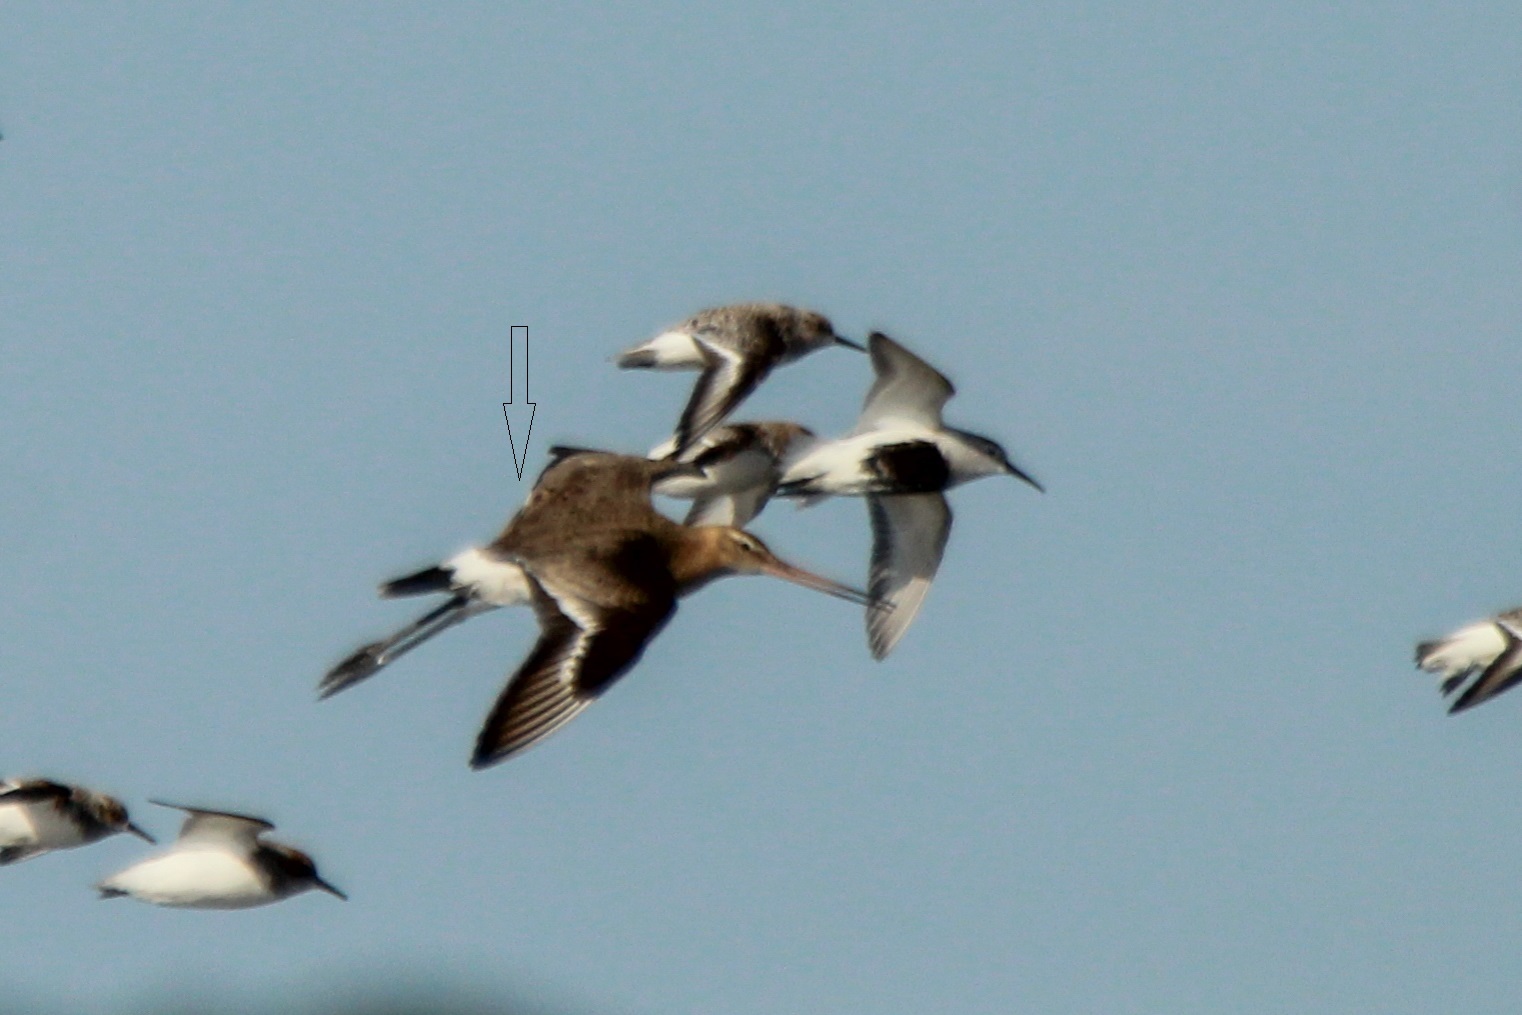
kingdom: Animalia
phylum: Chordata
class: Aves
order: Charadriiformes
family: Scolopacidae
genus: Limosa
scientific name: Limosa limosa
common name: Black-tailed godwit
